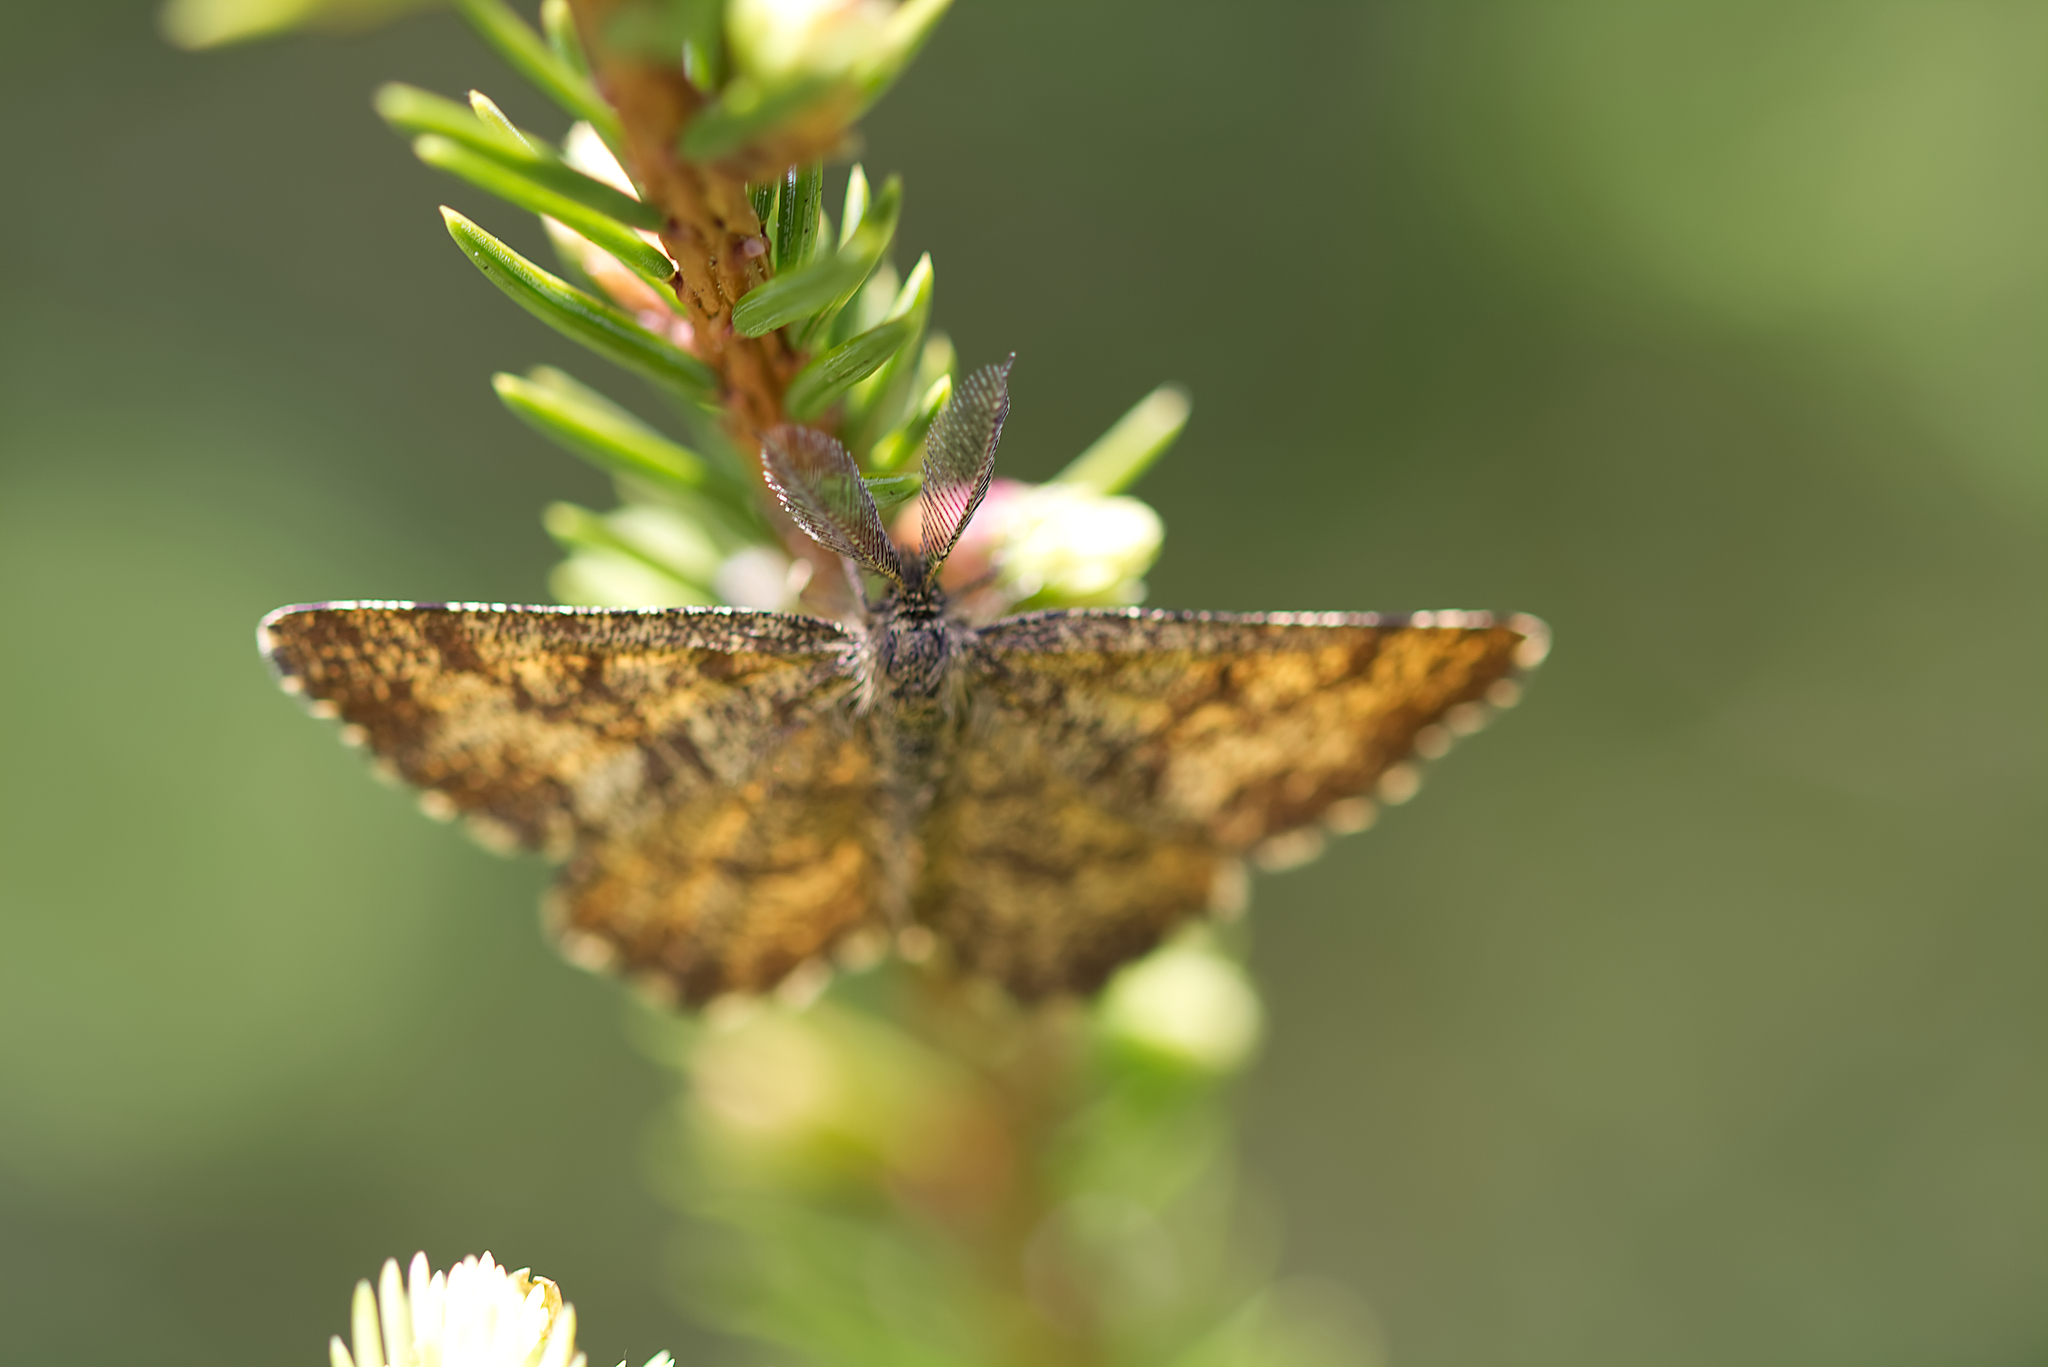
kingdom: Animalia
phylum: Arthropoda
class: Insecta
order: Lepidoptera
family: Geometridae
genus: Ematurga
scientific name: Ematurga atomaria
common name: Common heath
